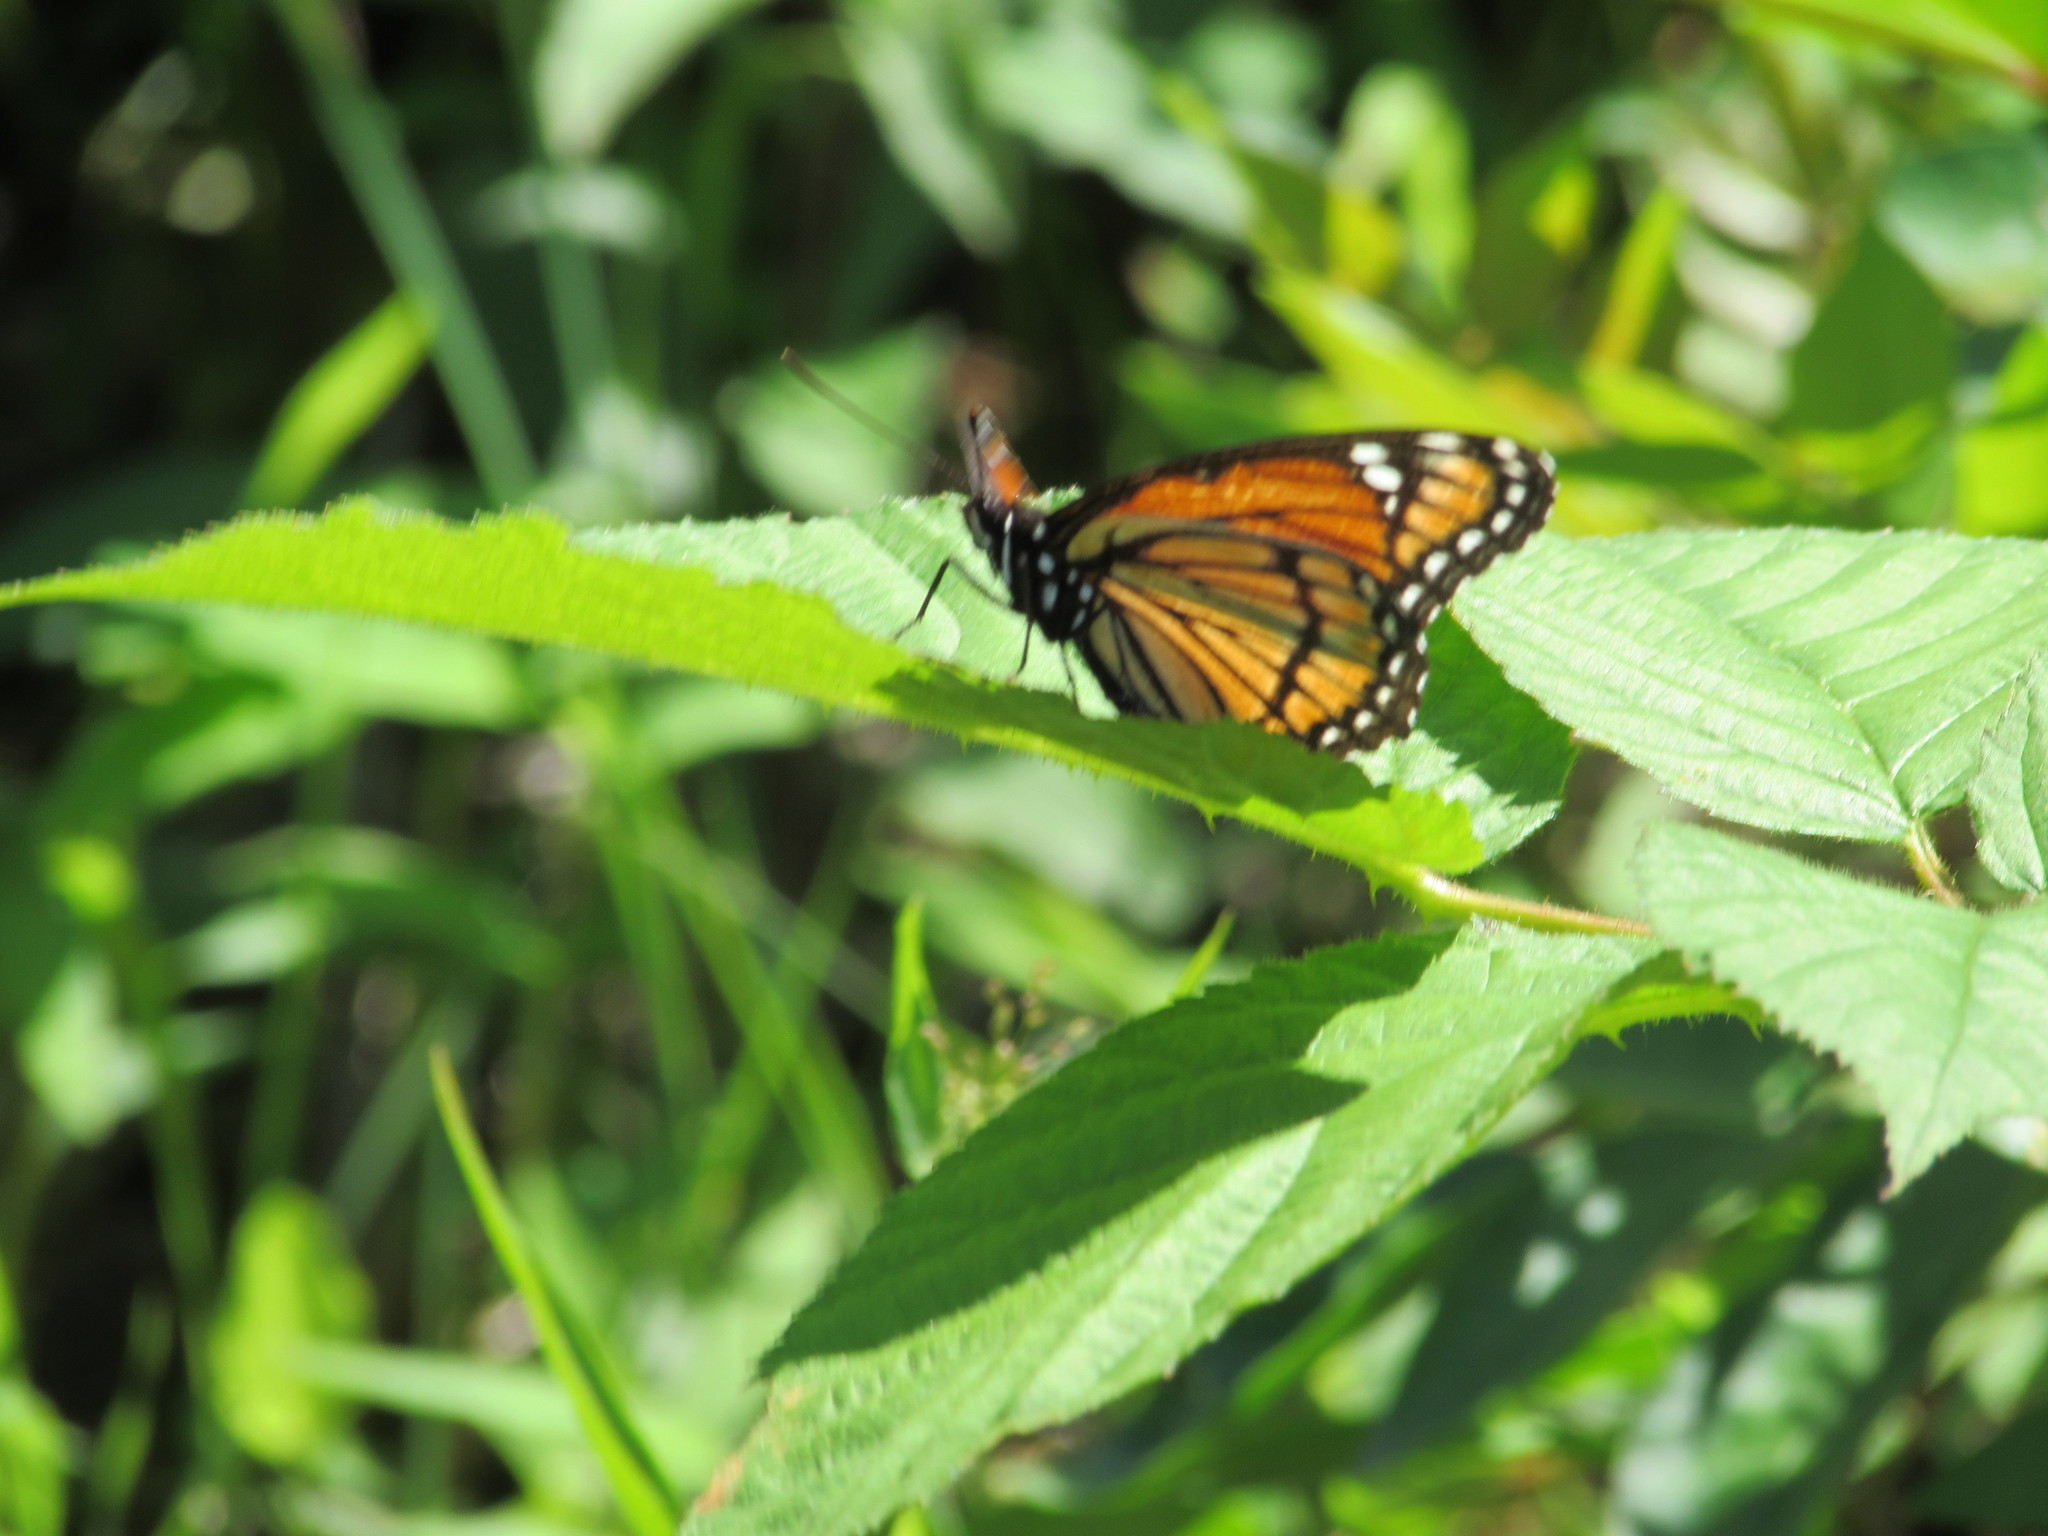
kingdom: Animalia
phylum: Arthropoda
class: Insecta
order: Lepidoptera
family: Nymphalidae
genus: Limenitis
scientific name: Limenitis archippus
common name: Viceroy
